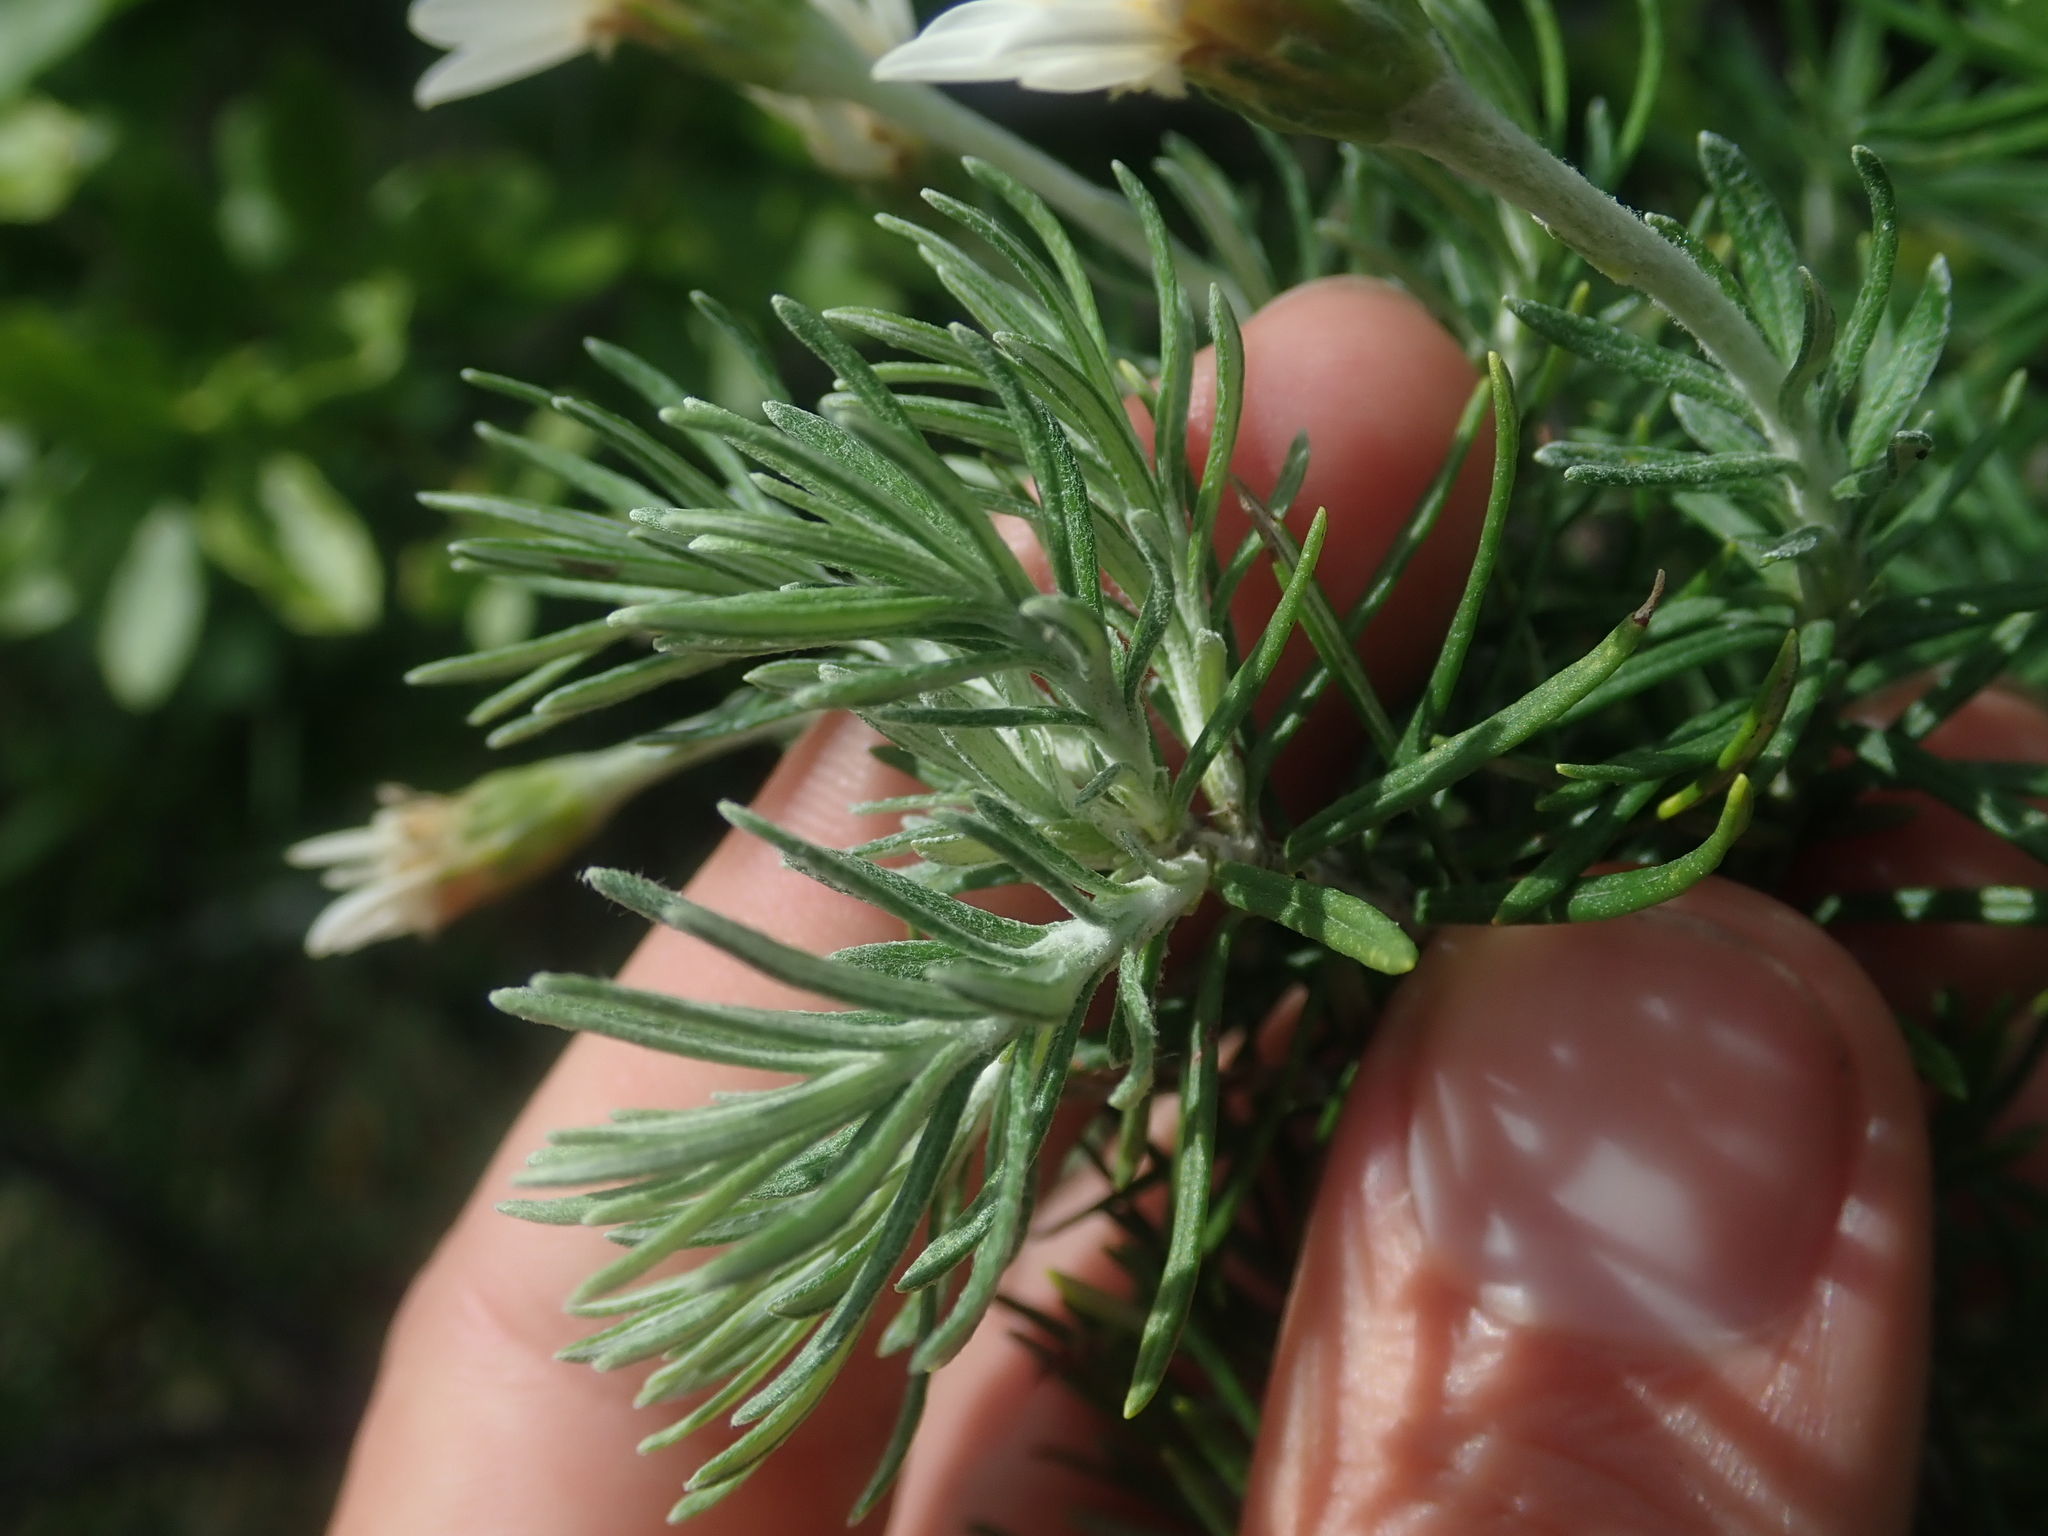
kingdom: Plantae
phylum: Tracheophyta
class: Magnoliopsida
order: Asterales
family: Asteraceae
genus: Chiliotrichum
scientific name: Chiliotrichum diffusum
